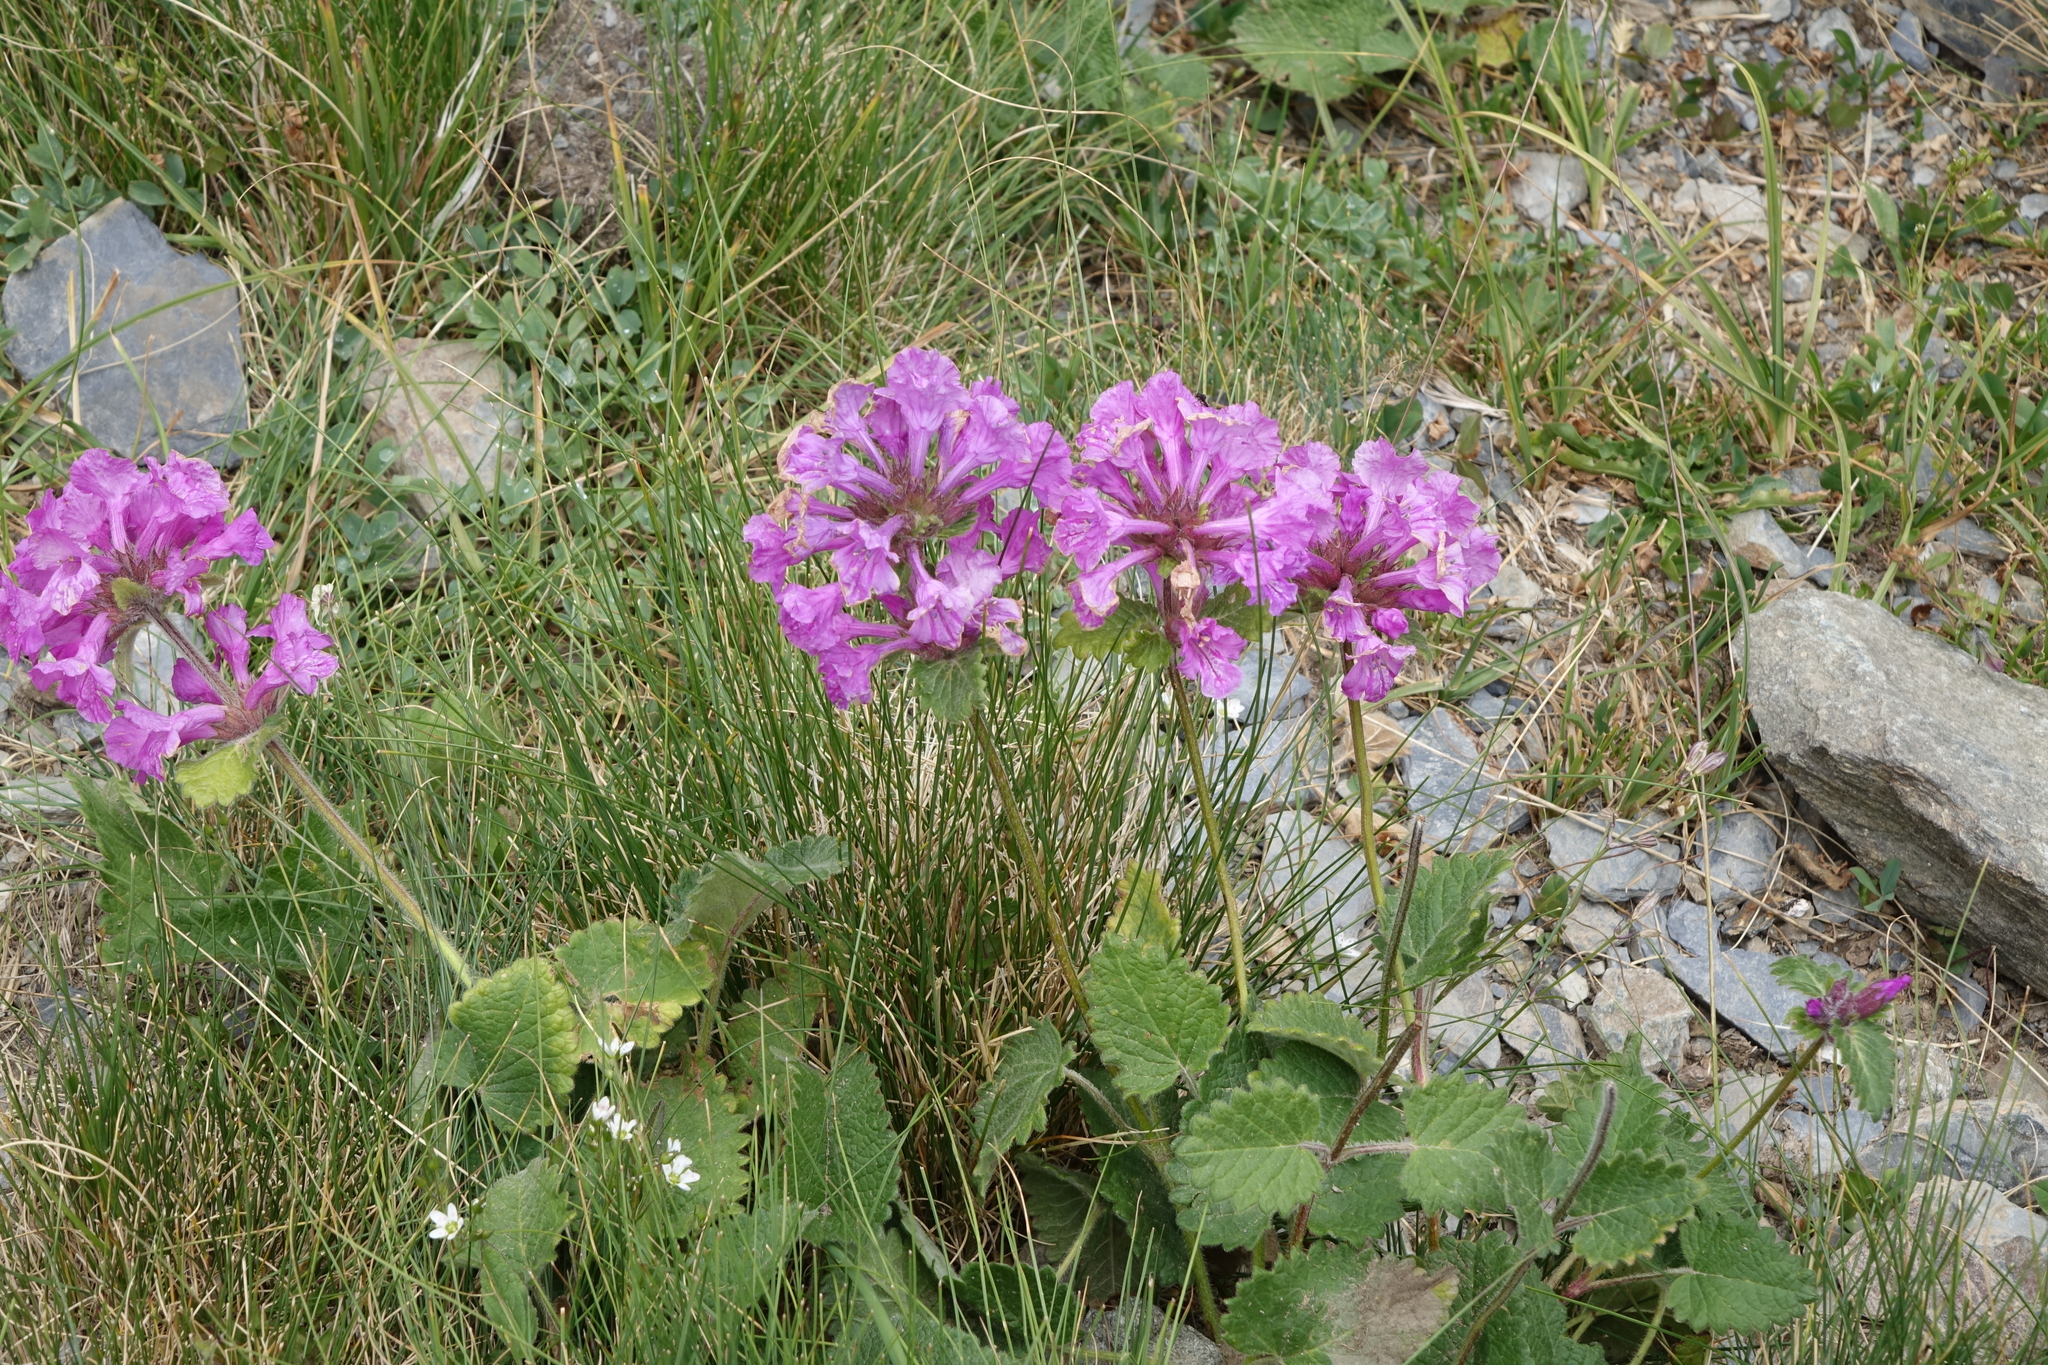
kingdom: Plantae
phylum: Tracheophyta
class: Magnoliopsida
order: Lamiales
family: Lamiaceae
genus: Betonica
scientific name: Betonica macrantha
